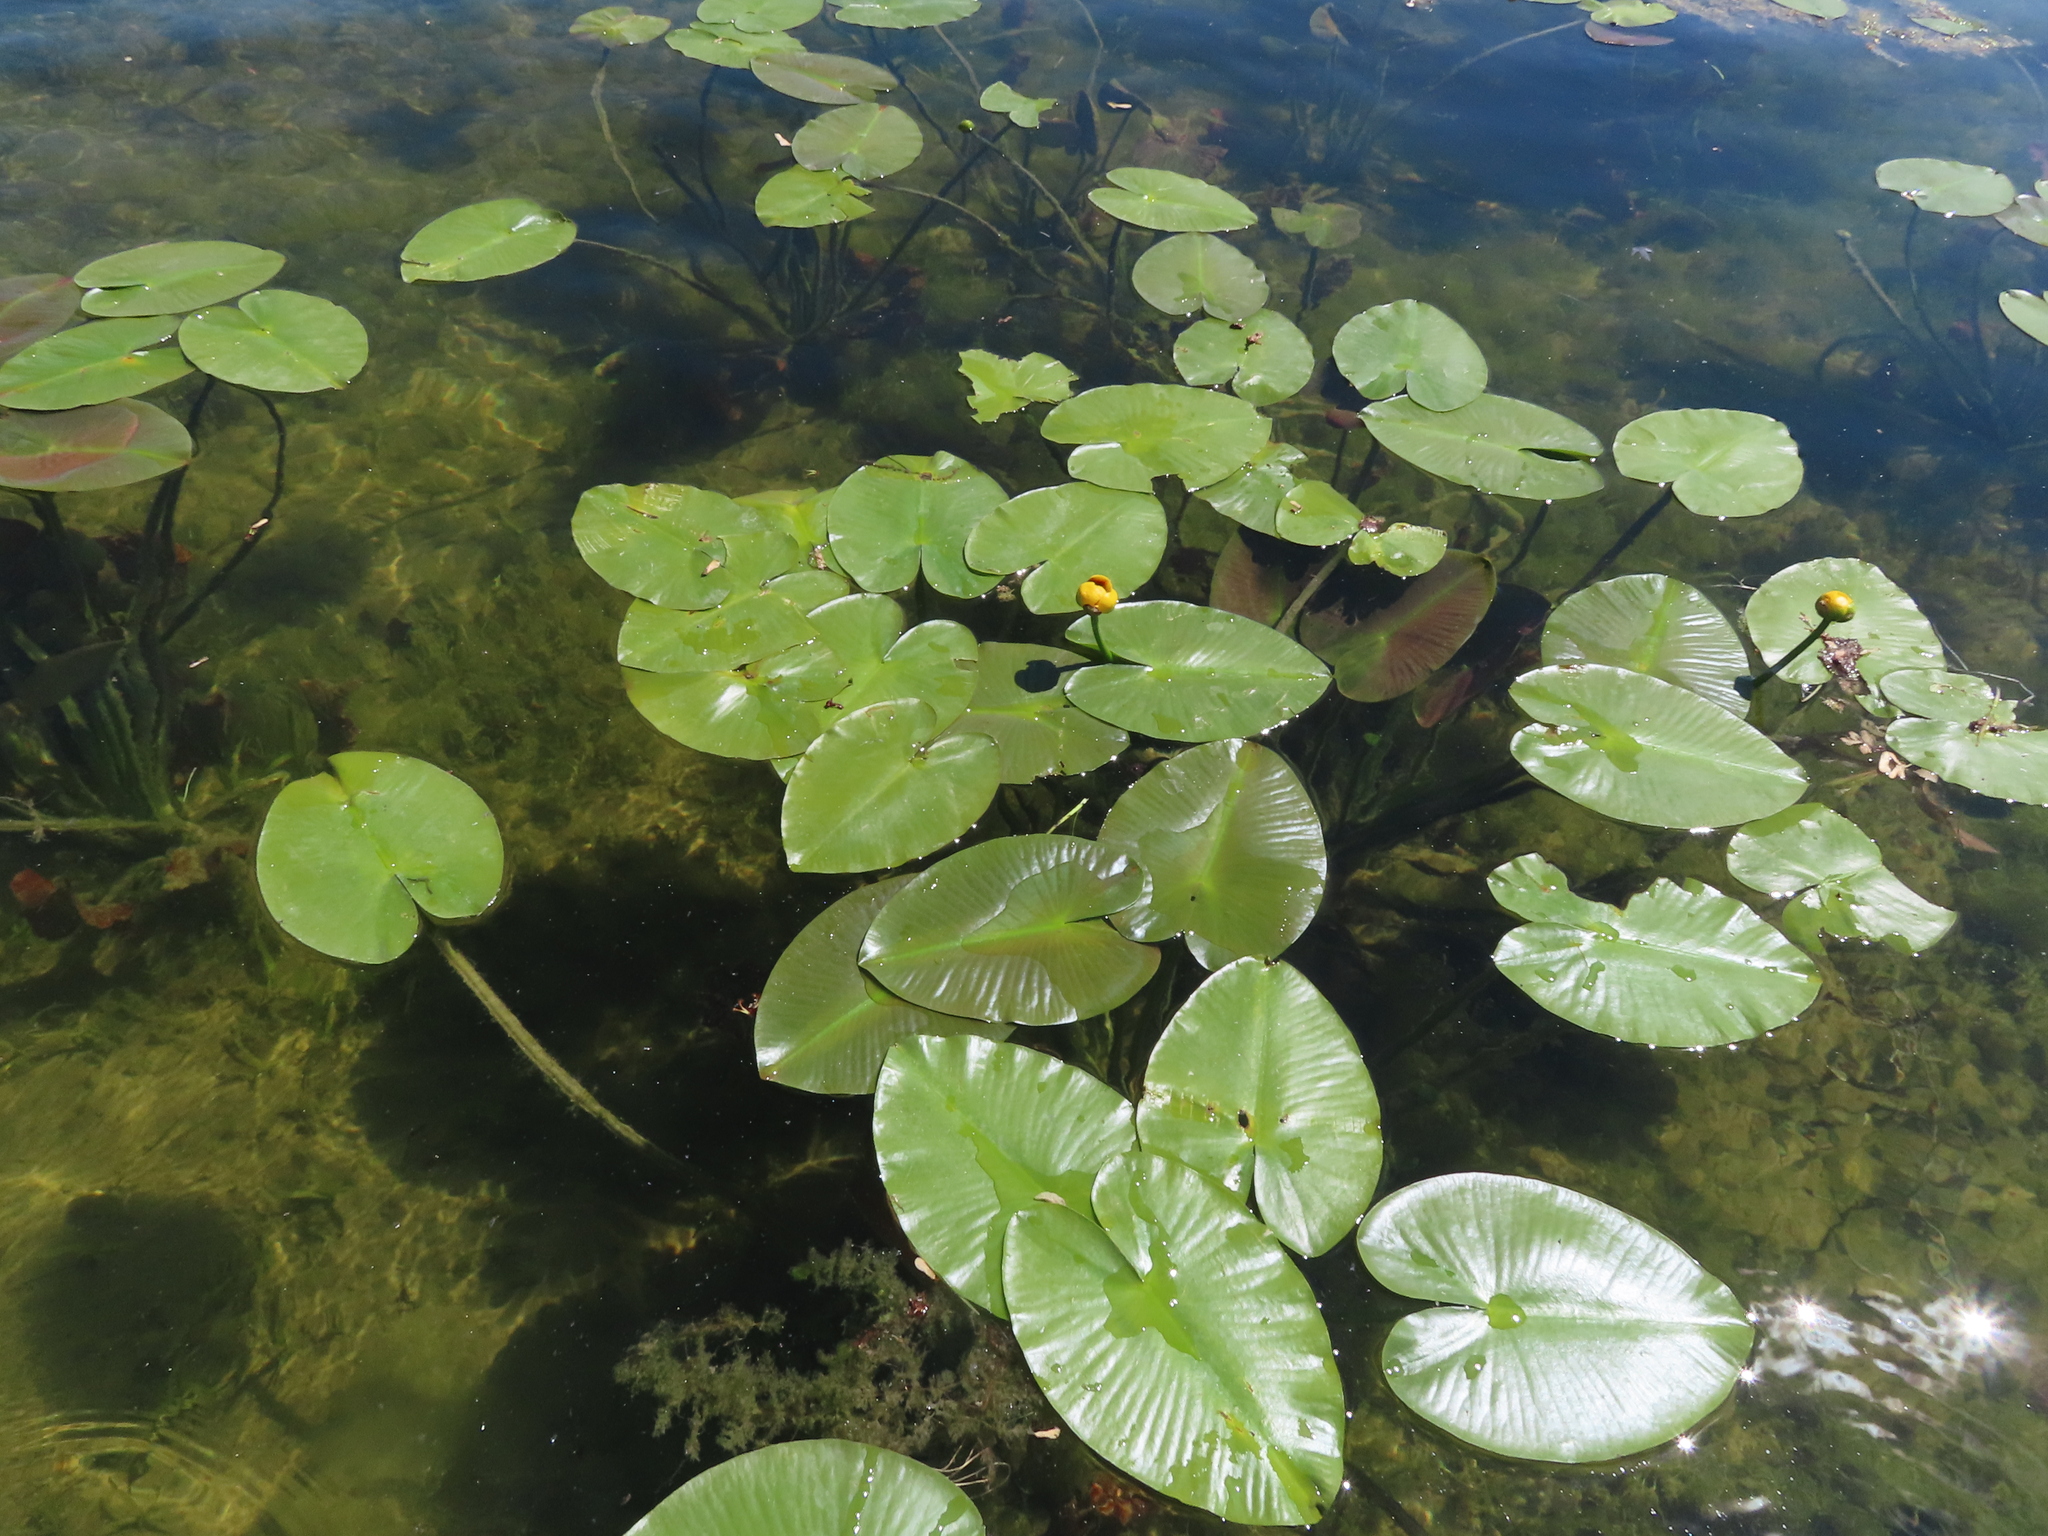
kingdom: Plantae
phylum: Tracheophyta
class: Magnoliopsida
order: Nymphaeales
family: Nymphaeaceae
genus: Nuphar
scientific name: Nuphar variegata
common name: Beaver-root
